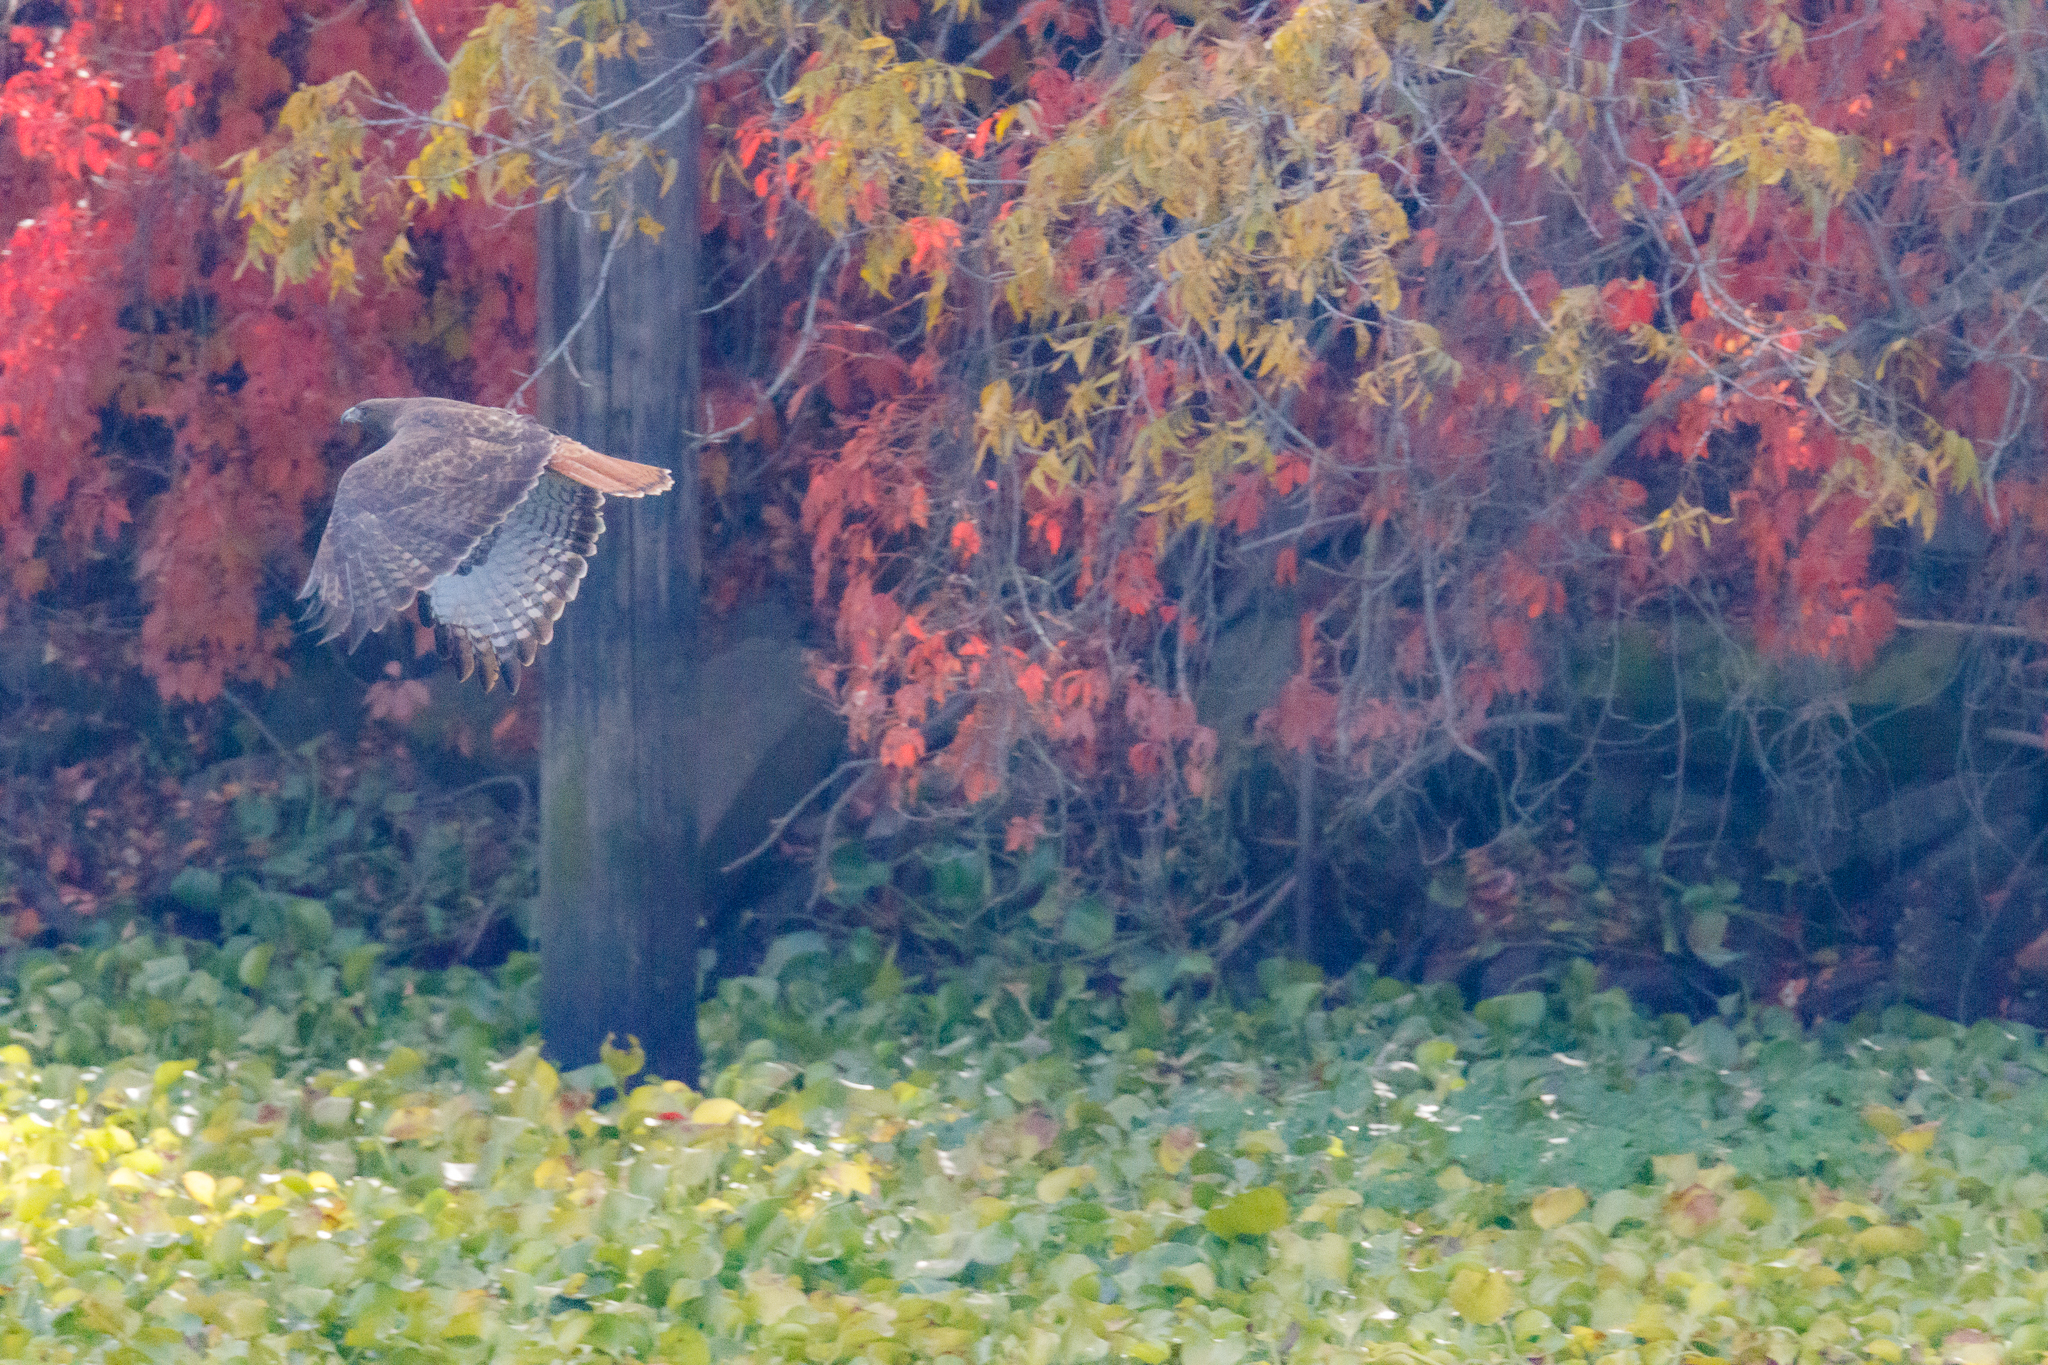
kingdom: Animalia
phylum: Chordata
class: Aves
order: Accipitriformes
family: Accipitridae
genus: Buteo
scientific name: Buteo jamaicensis
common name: Red-tailed hawk
